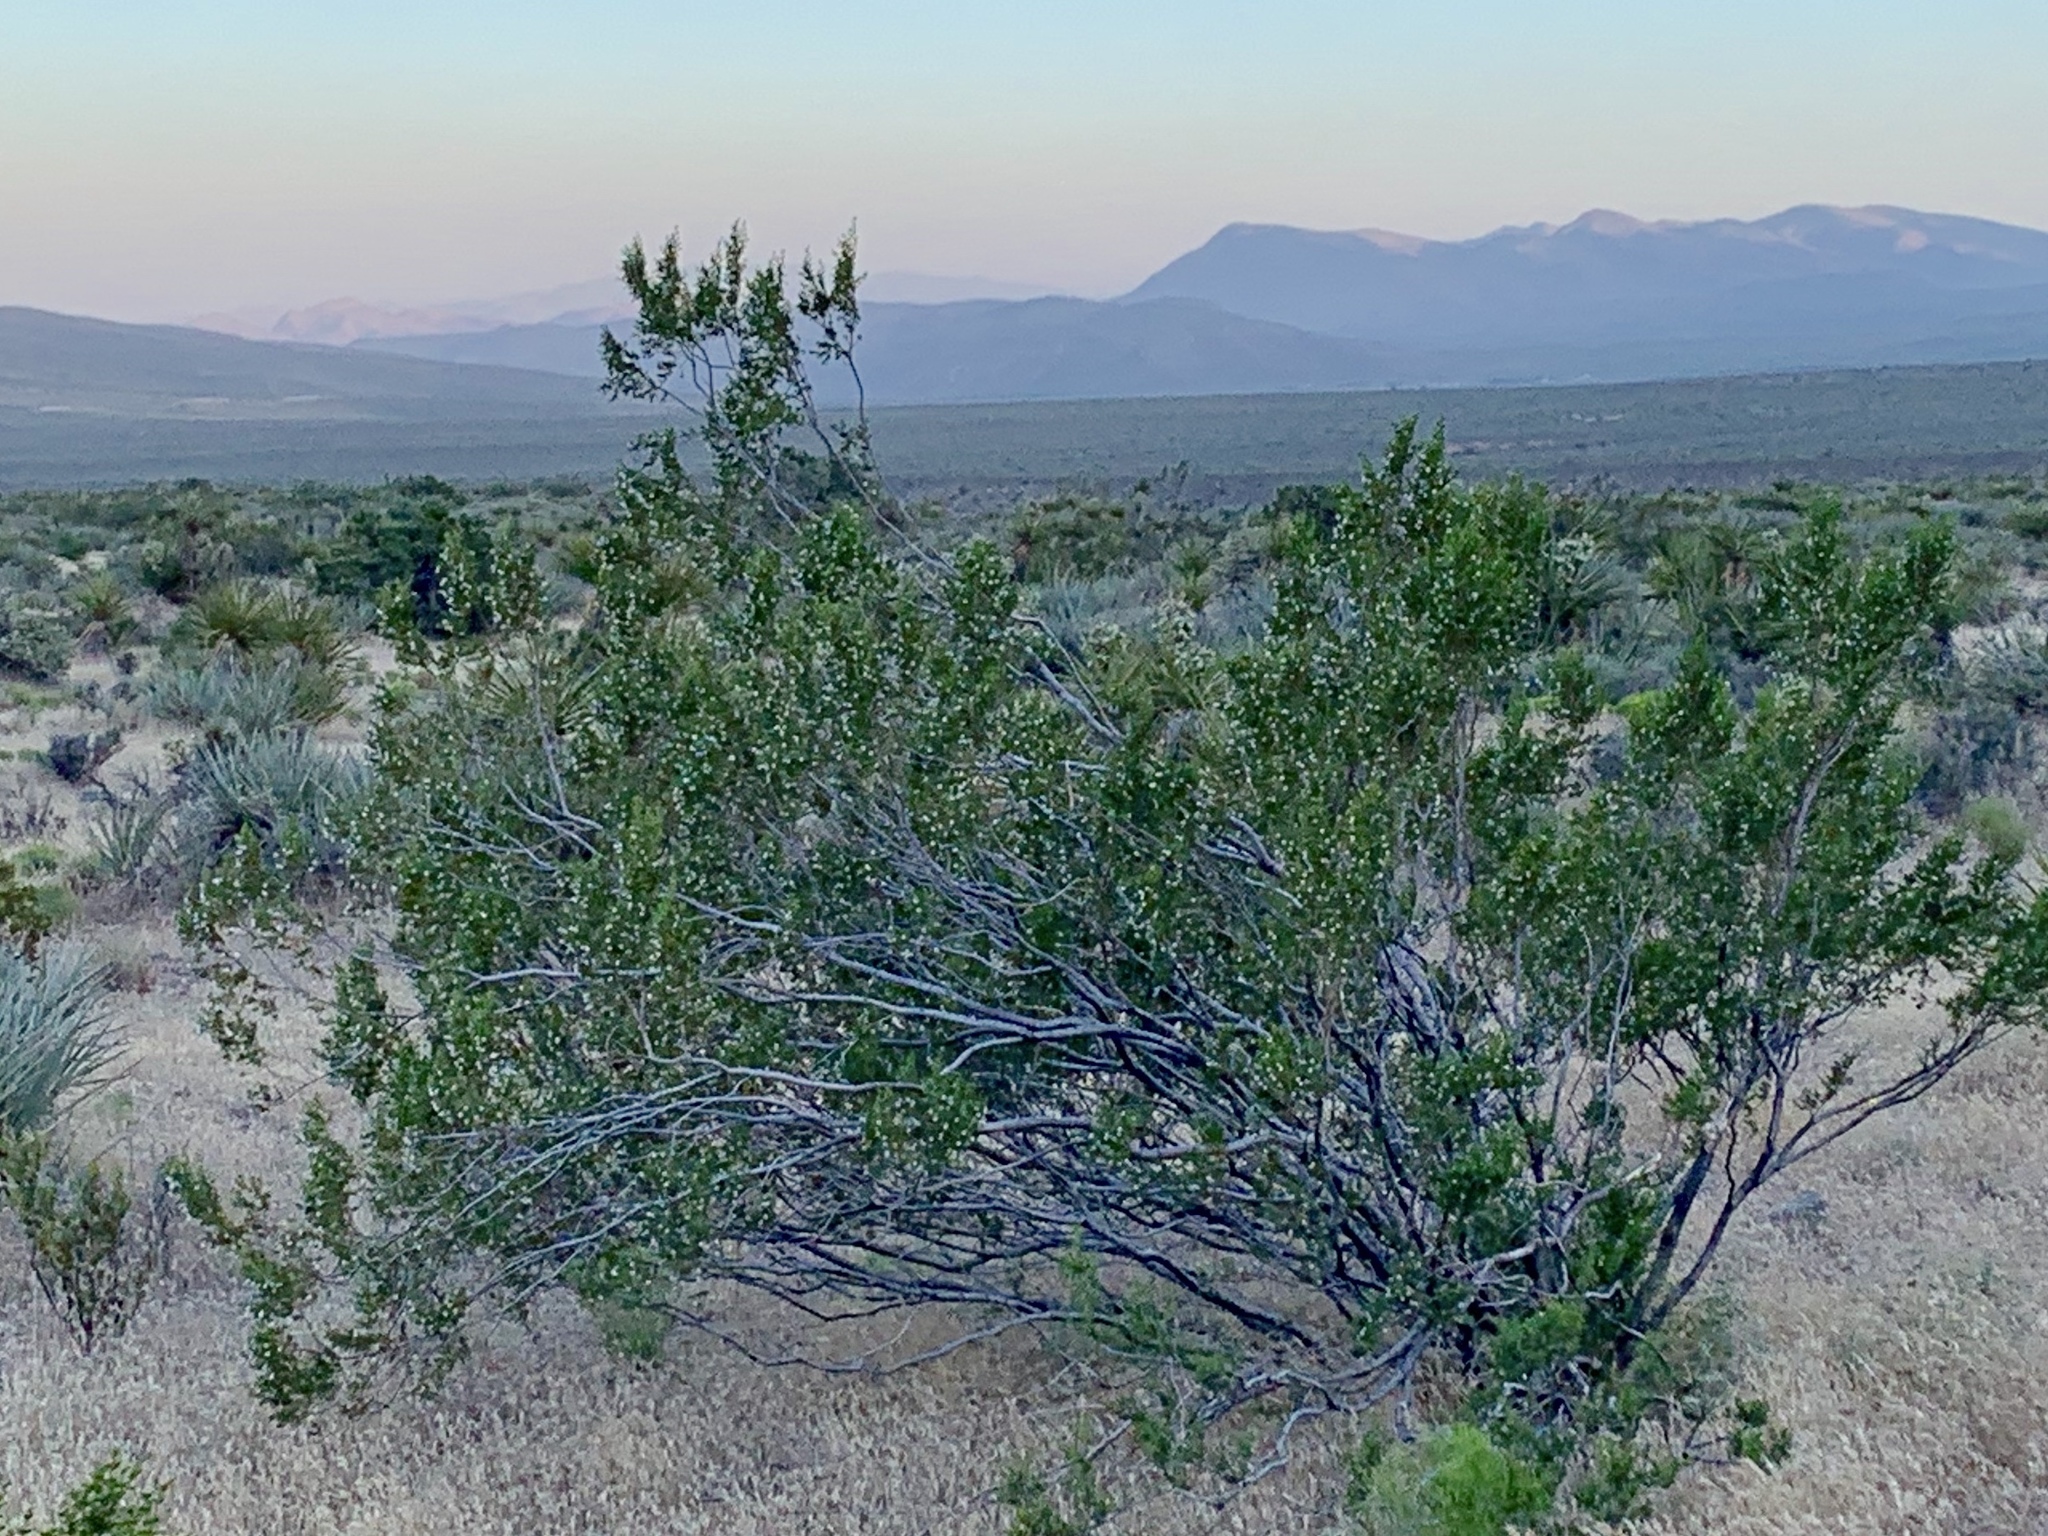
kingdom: Plantae
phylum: Tracheophyta
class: Magnoliopsida
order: Zygophyllales
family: Zygophyllaceae
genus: Larrea
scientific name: Larrea tridentata
